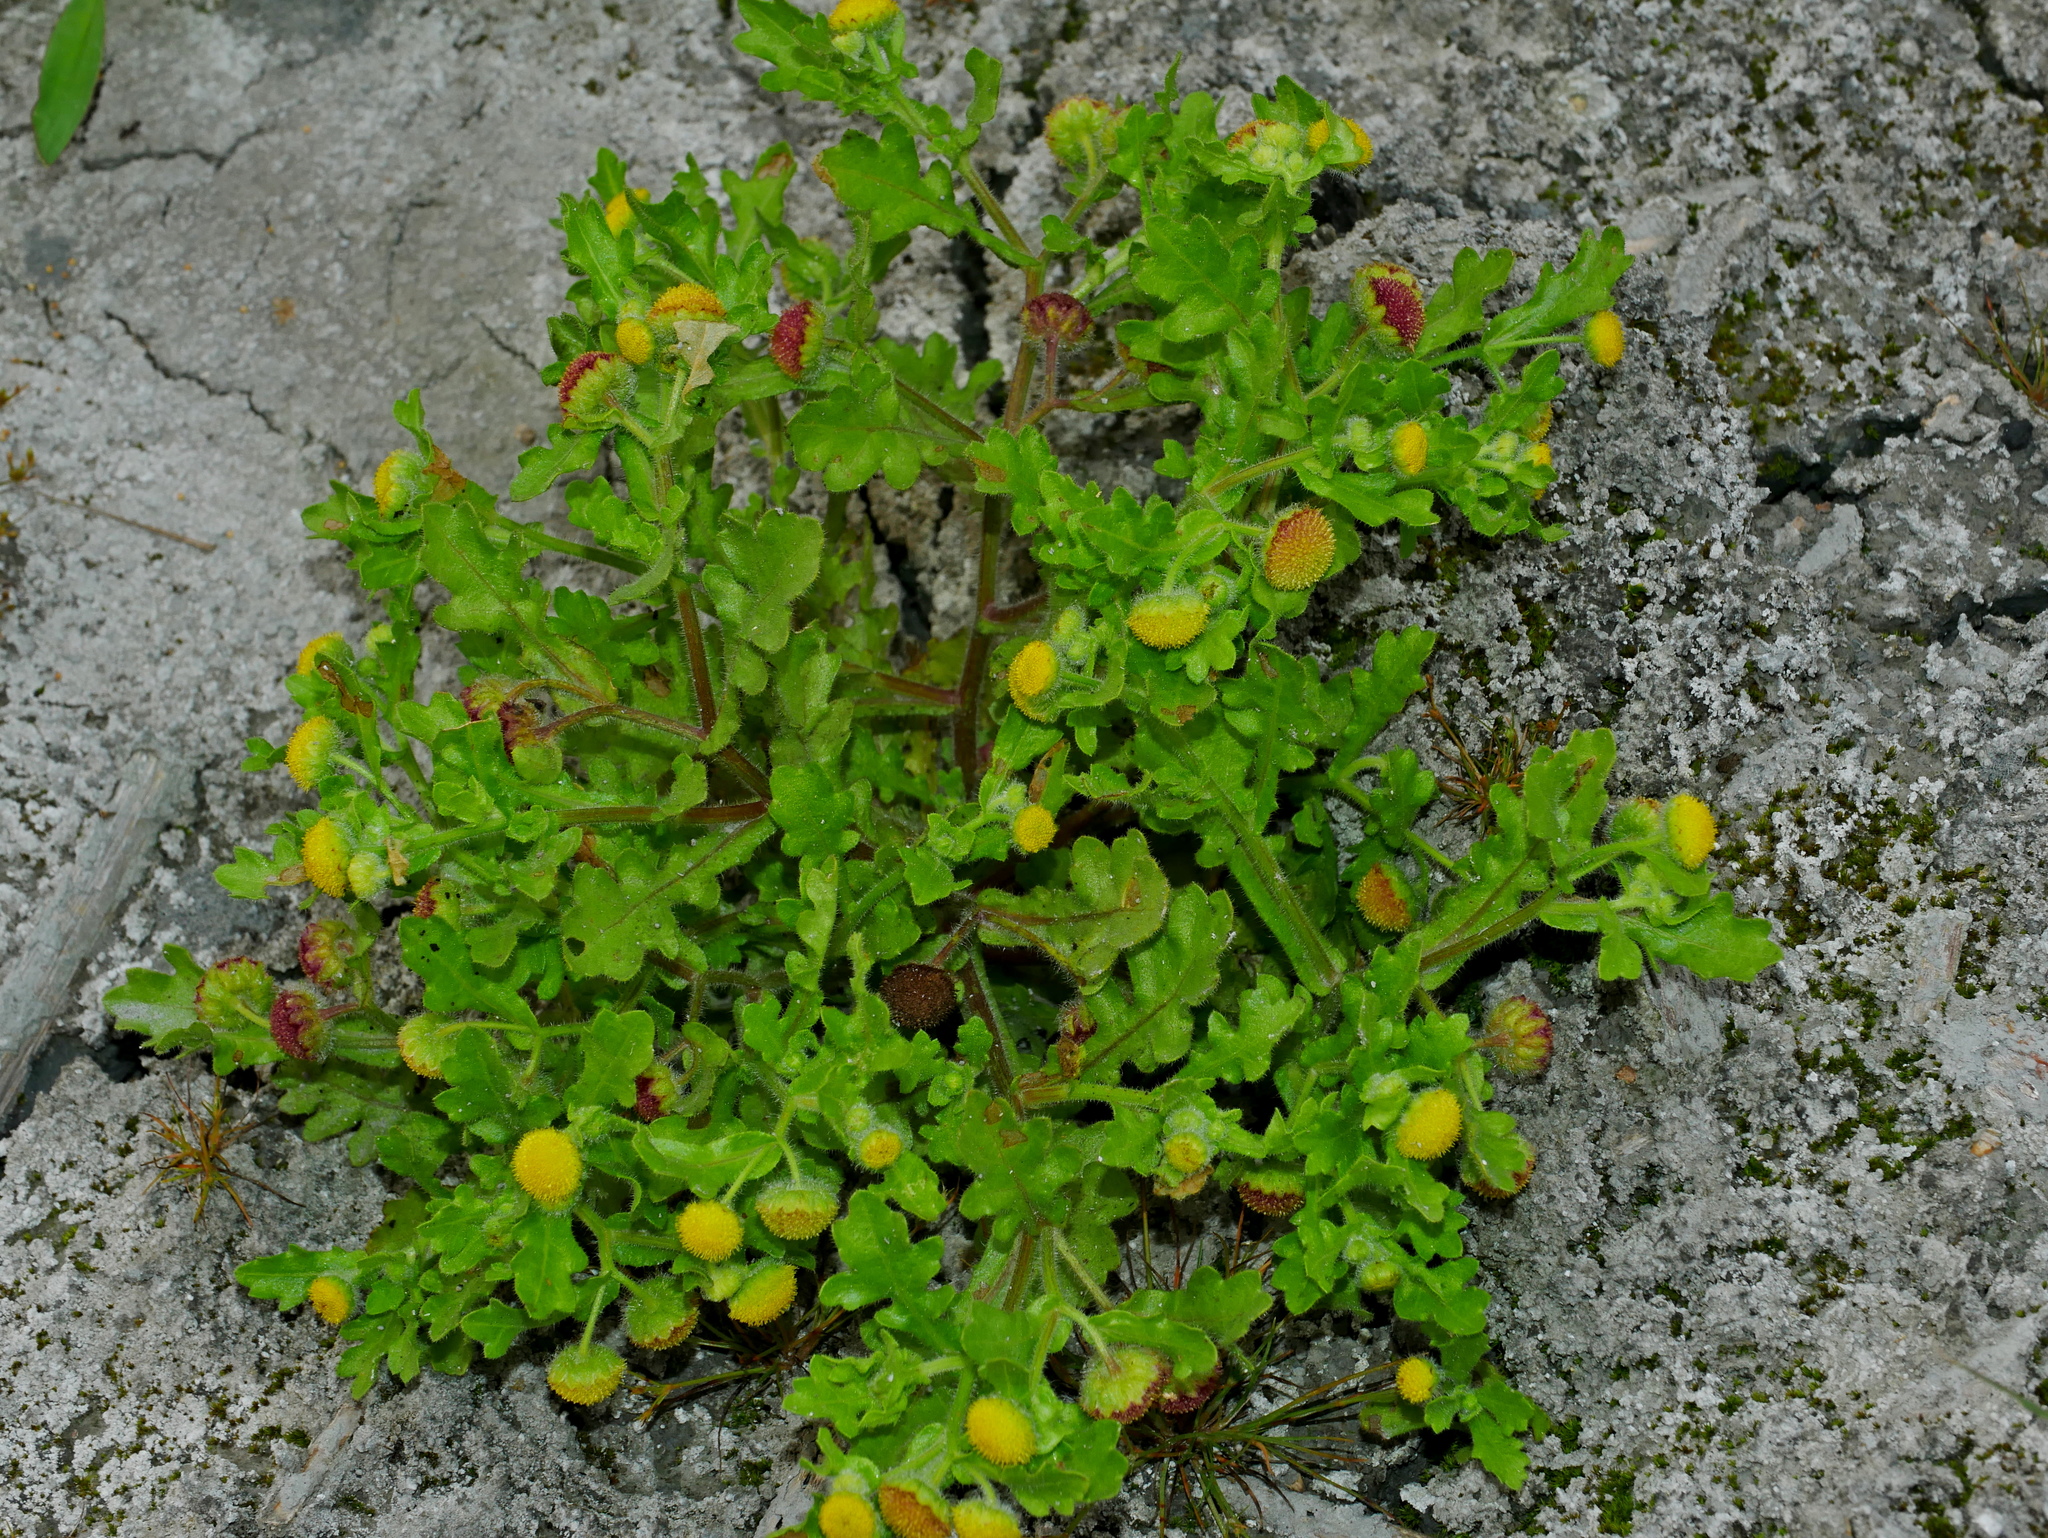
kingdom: Plantae
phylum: Tracheophyta
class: Magnoliopsida
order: Asterales
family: Asteraceae
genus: Grangea
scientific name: Grangea maderaspatana
